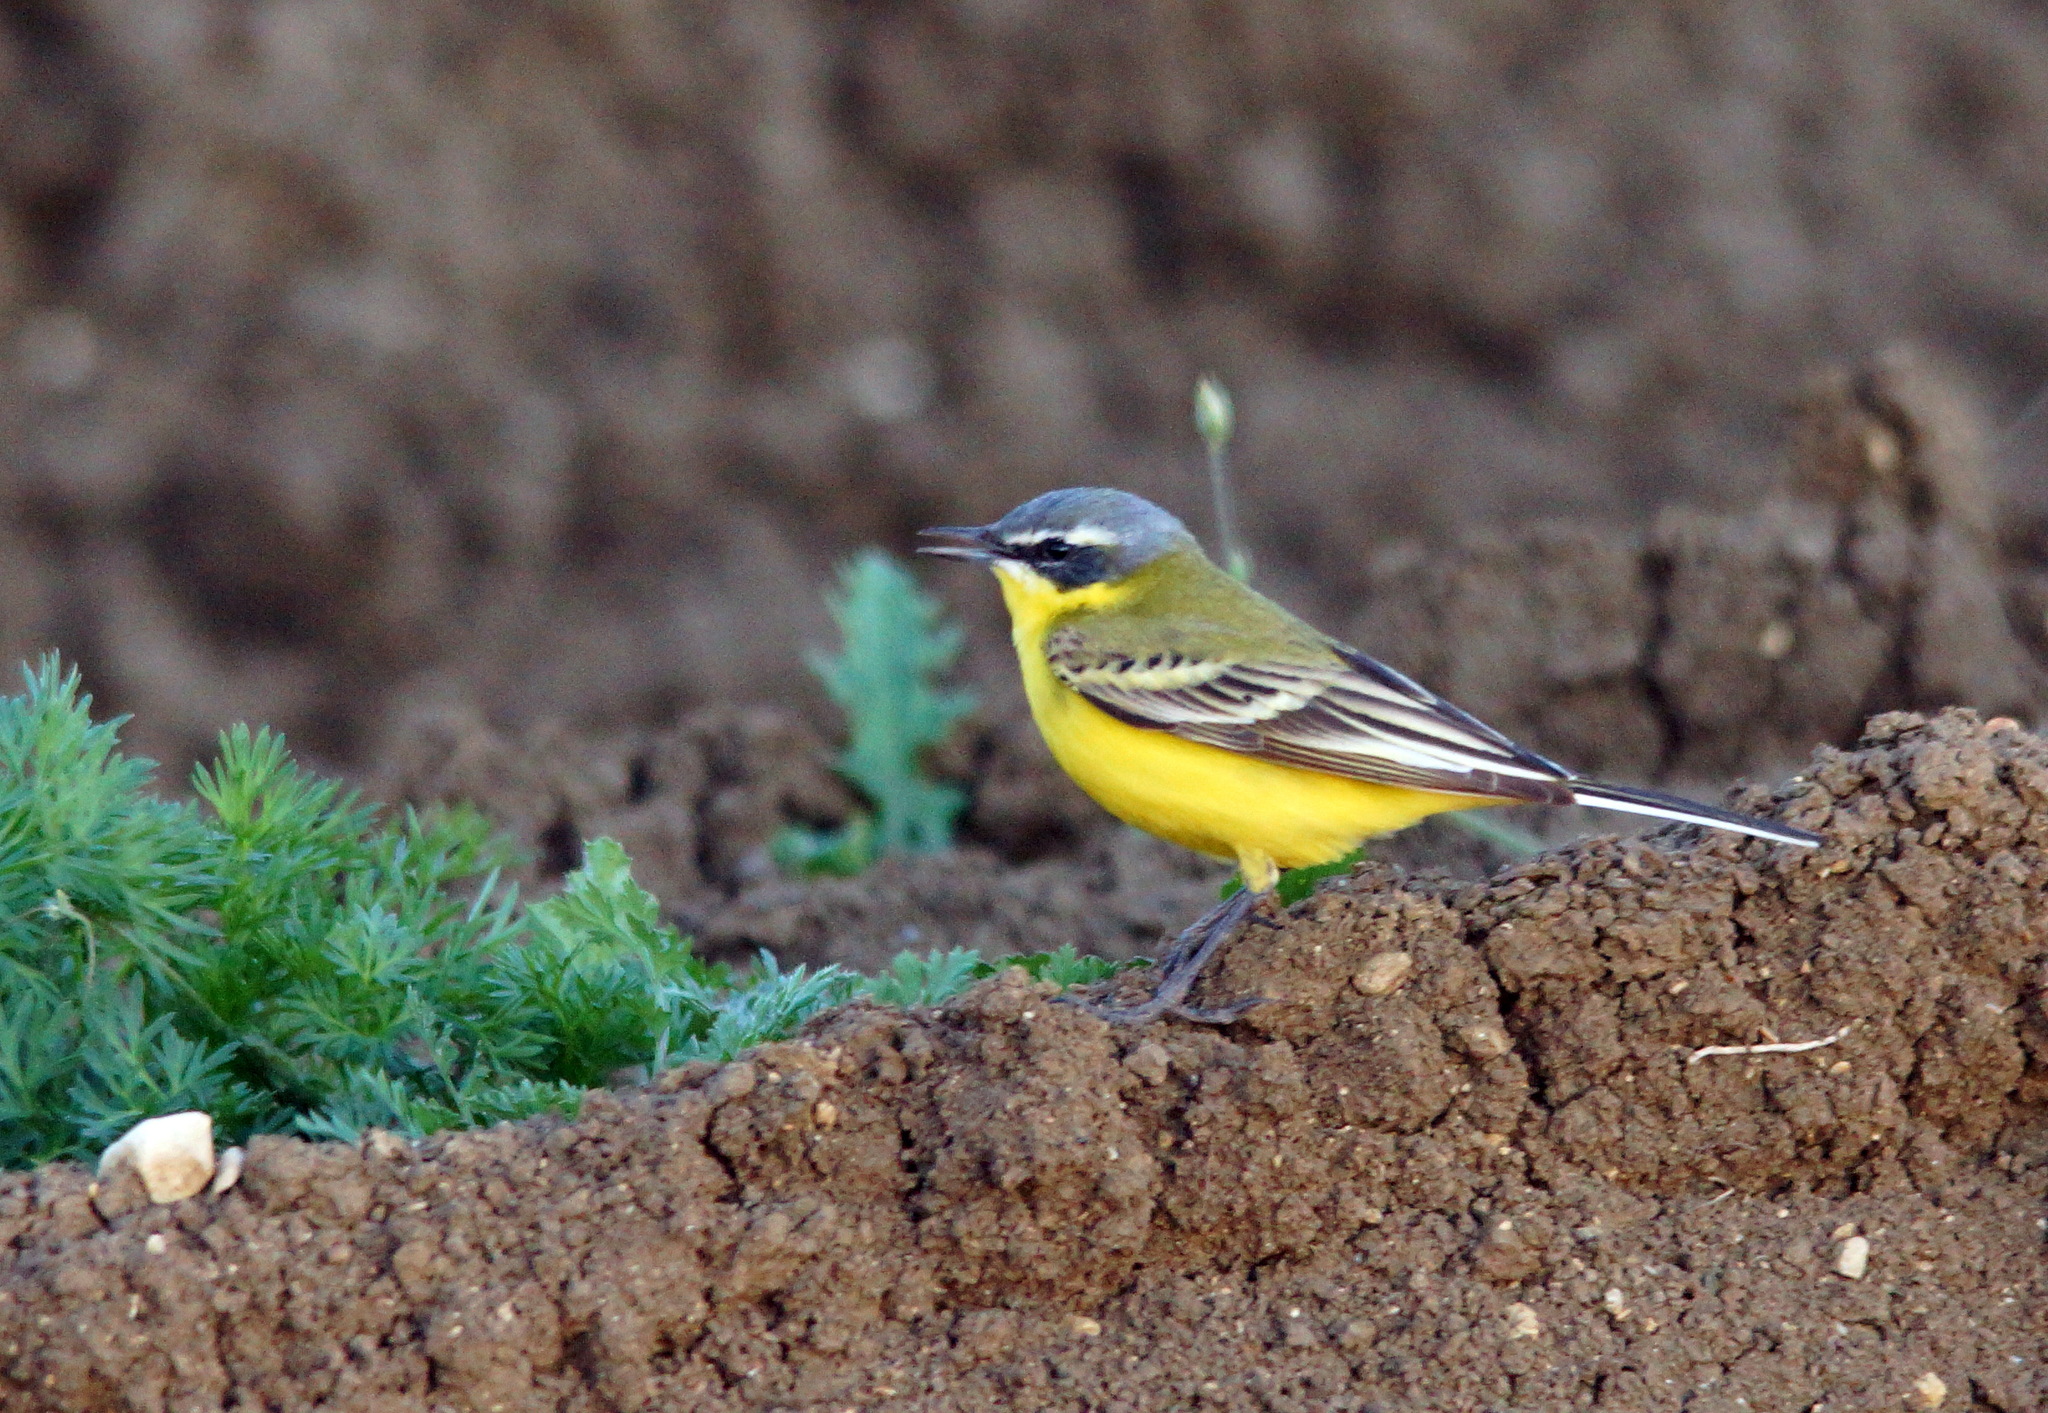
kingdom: Animalia
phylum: Chordata
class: Aves
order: Passeriformes
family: Motacillidae
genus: Motacilla
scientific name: Motacilla flava
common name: Western yellow wagtail
